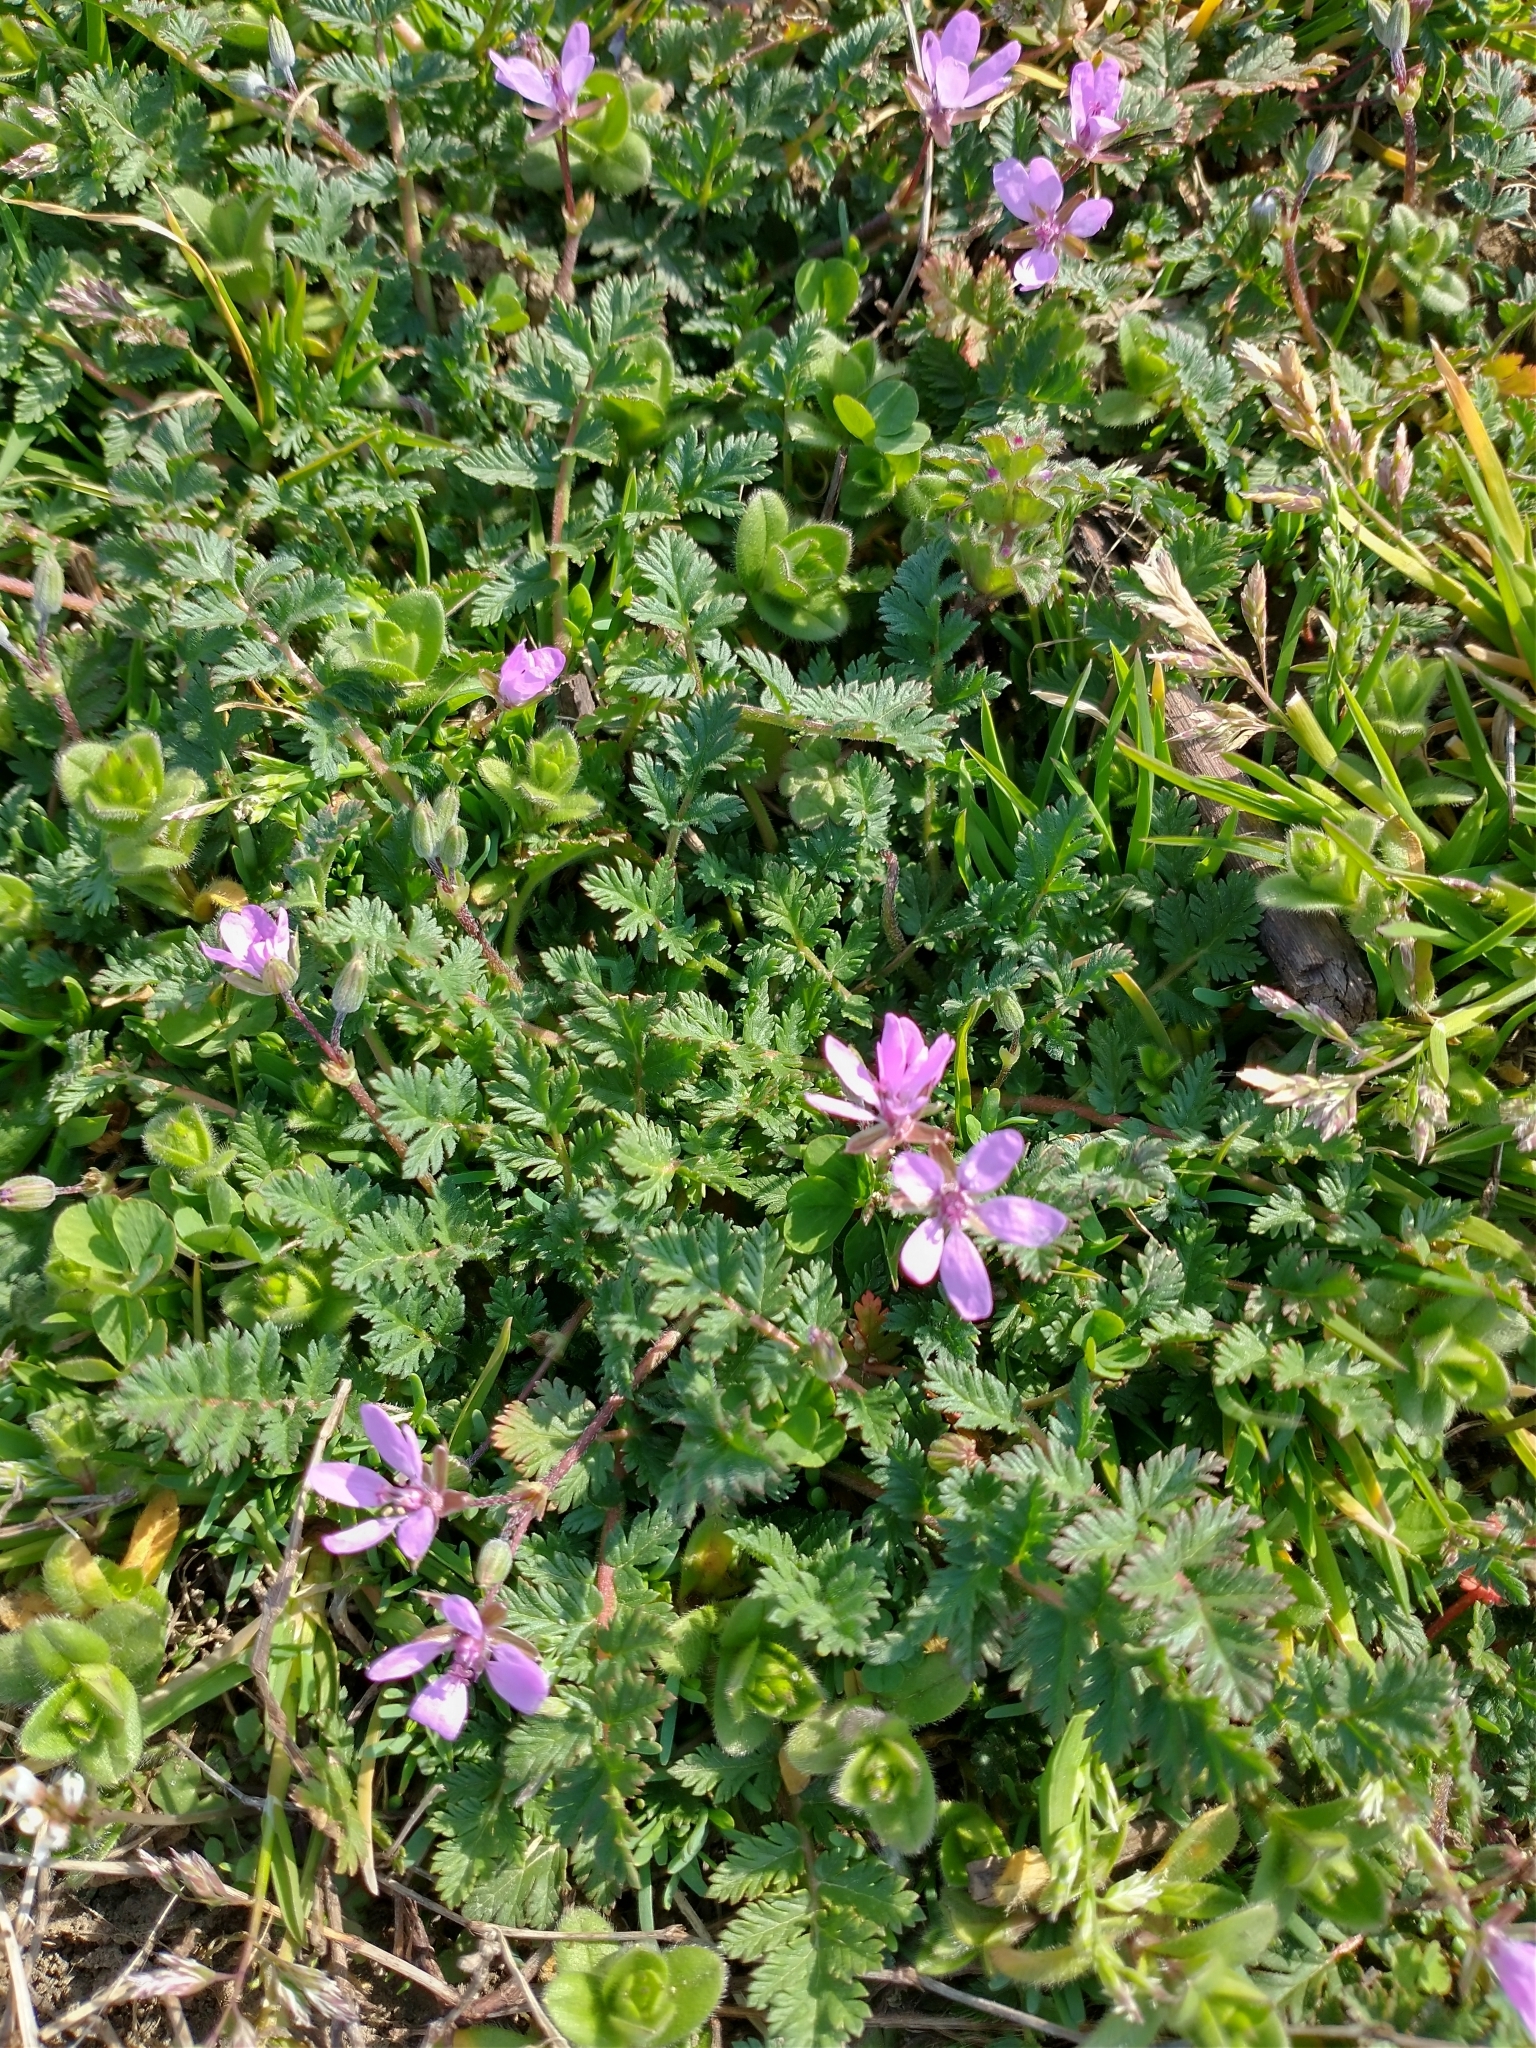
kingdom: Plantae
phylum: Tracheophyta
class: Magnoliopsida
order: Geraniales
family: Geraniaceae
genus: Erodium
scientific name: Erodium cicutarium
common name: Common stork's-bill
